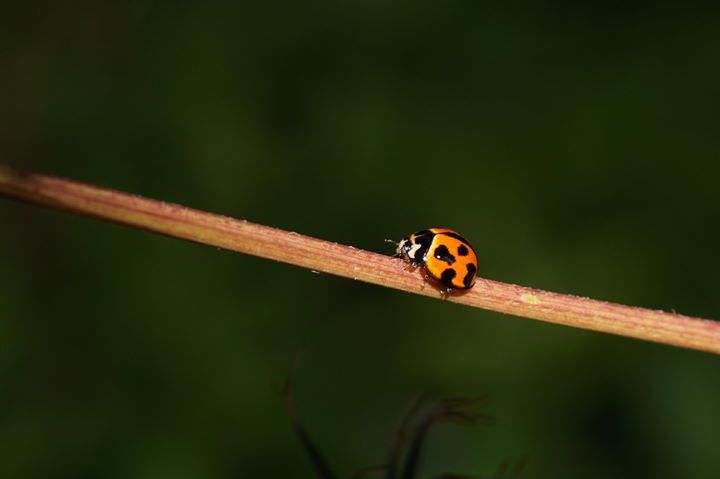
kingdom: Animalia
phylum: Arthropoda
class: Insecta
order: Coleoptera
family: Coccinellidae
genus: Coelophora
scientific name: Coelophora inaequalis
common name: Common australian lady beetle
